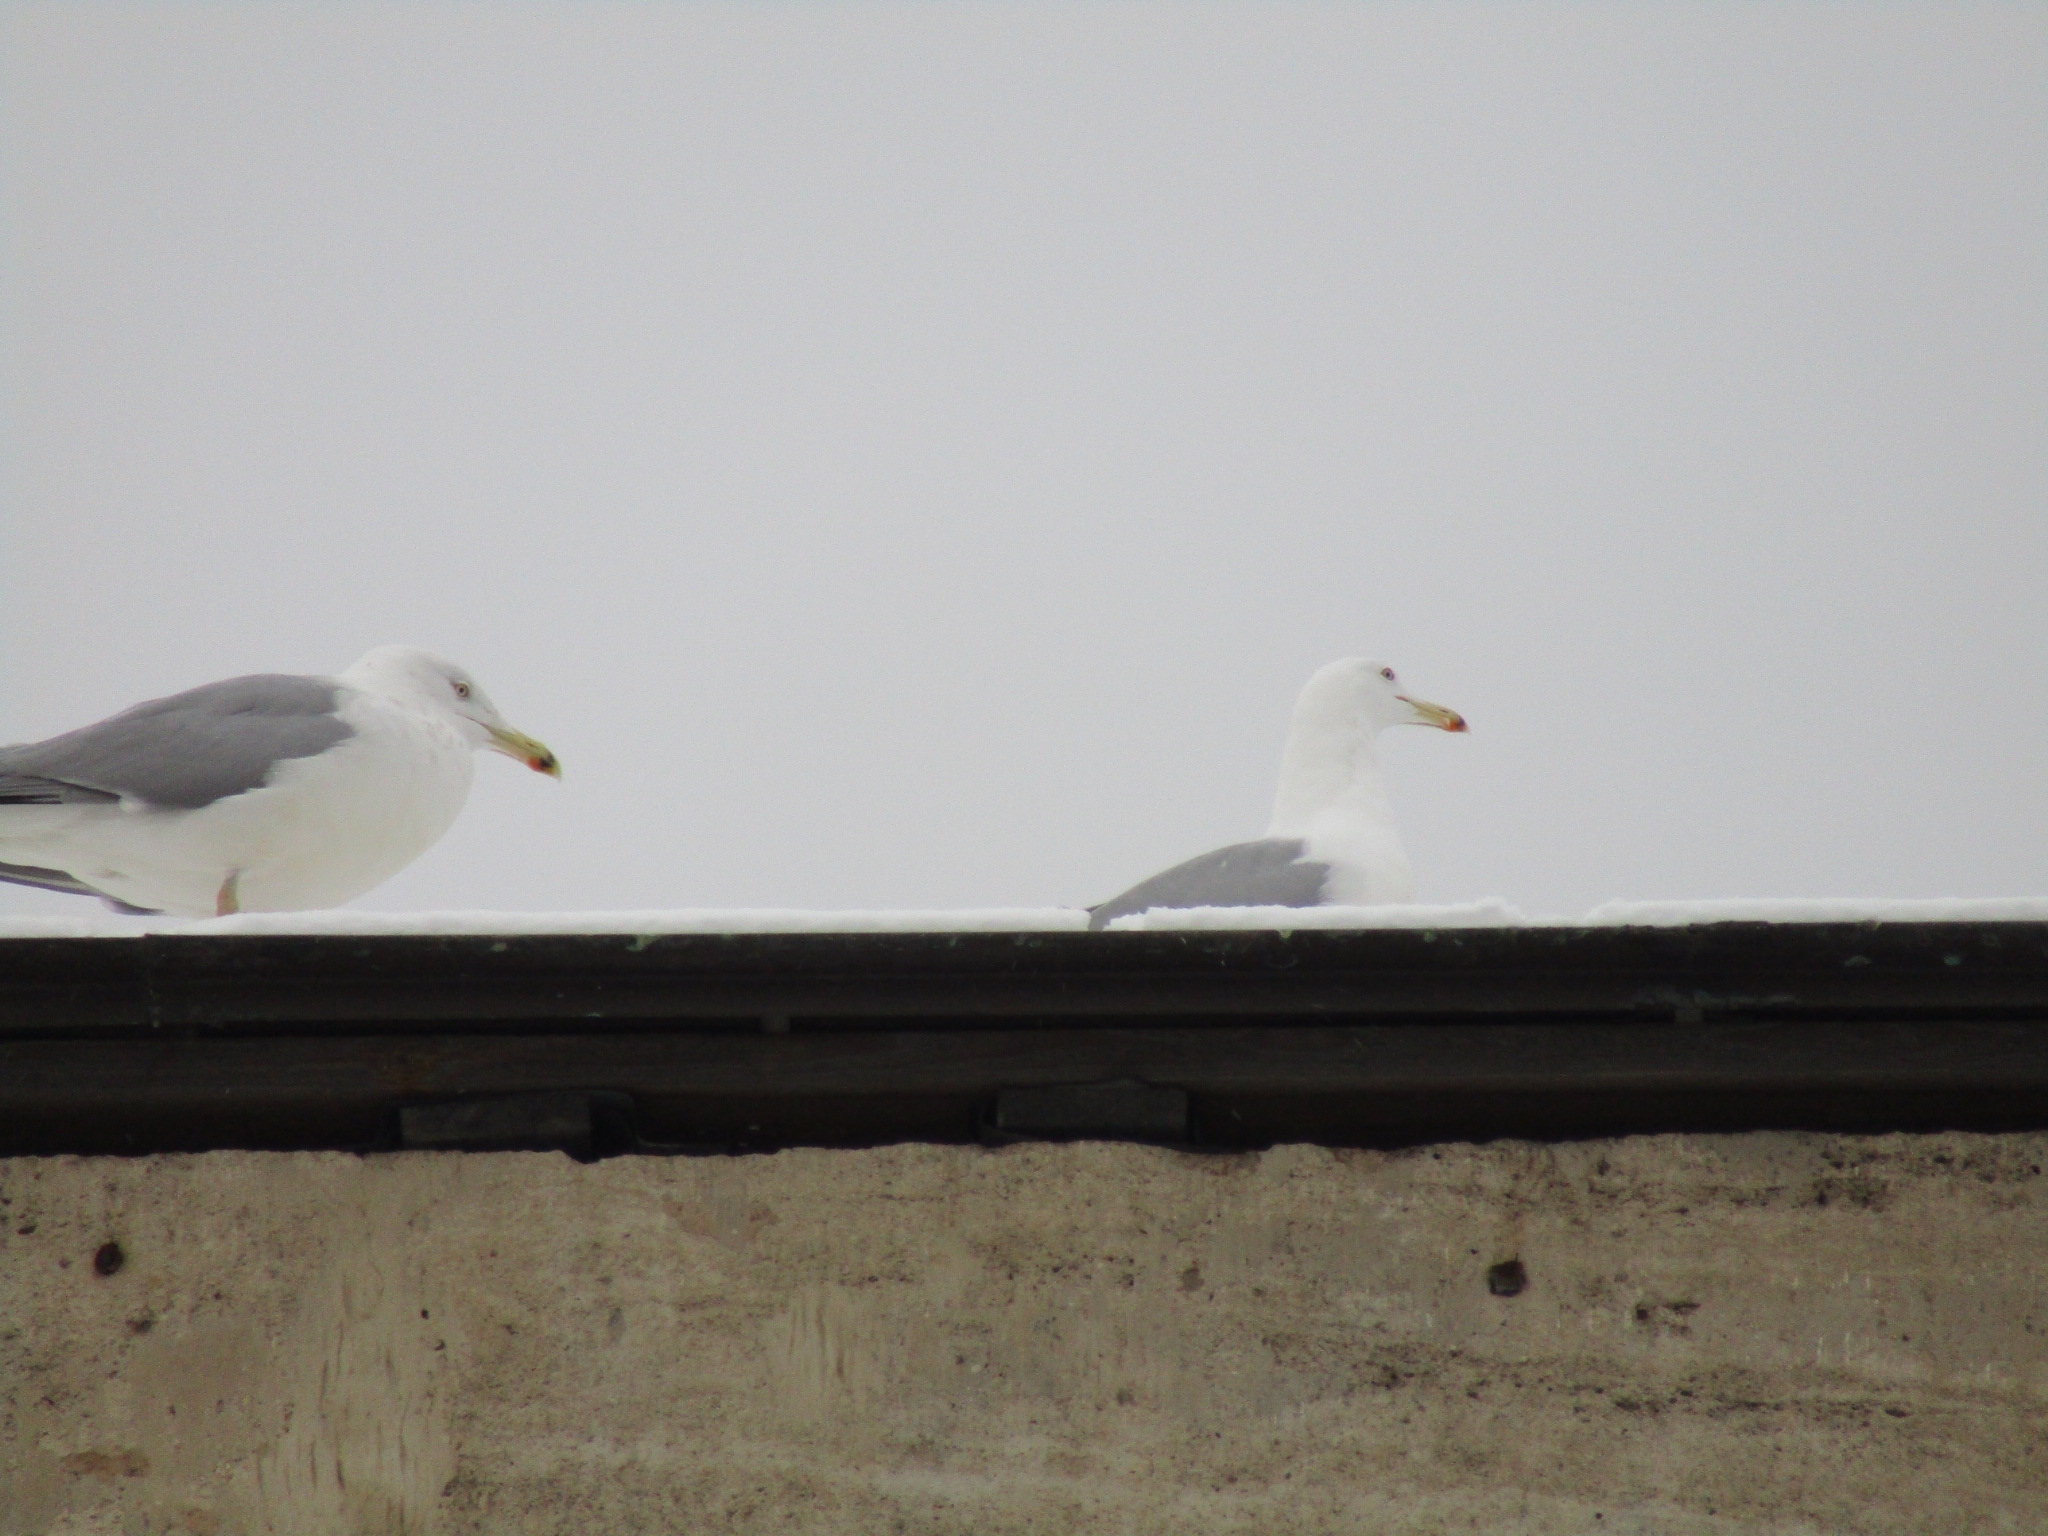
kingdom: Animalia
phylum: Chordata
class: Aves
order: Charadriiformes
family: Laridae
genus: Larus
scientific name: Larus argentatus
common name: Herring gull
